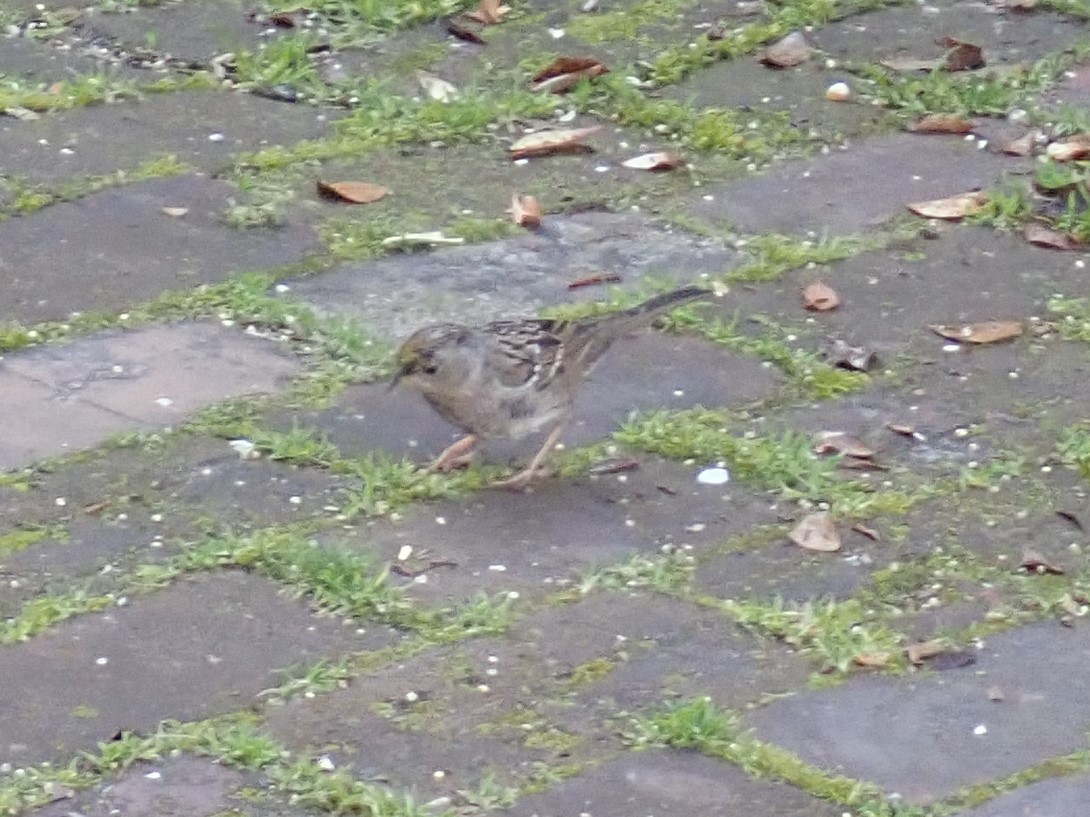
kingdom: Animalia
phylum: Chordata
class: Aves
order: Passeriformes
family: Passerellidae
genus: Zonotrichia
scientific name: Zonotrichia atricapilla
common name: Golden-crowned sparrow
